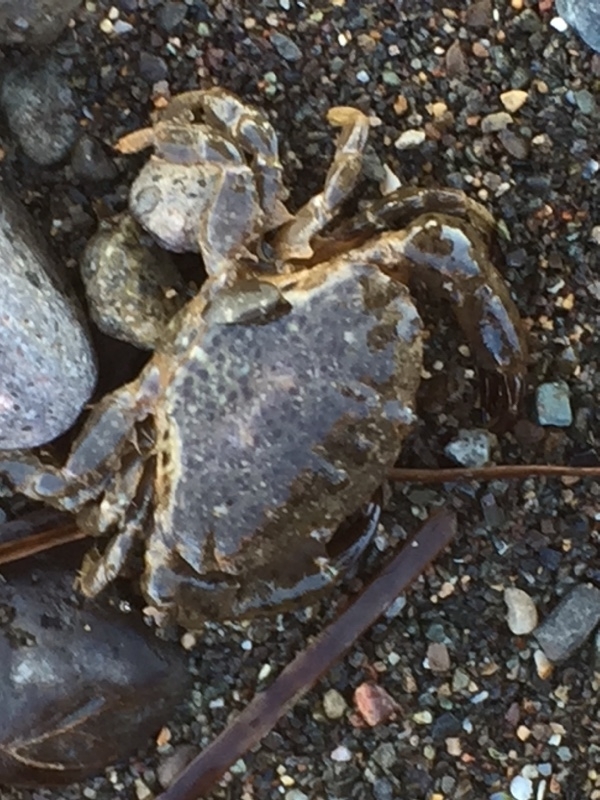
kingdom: Animalia
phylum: Arthropoda
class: Malacostraca
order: Decapoda
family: Xanthidae
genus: Xantho
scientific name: Xantho poressa
